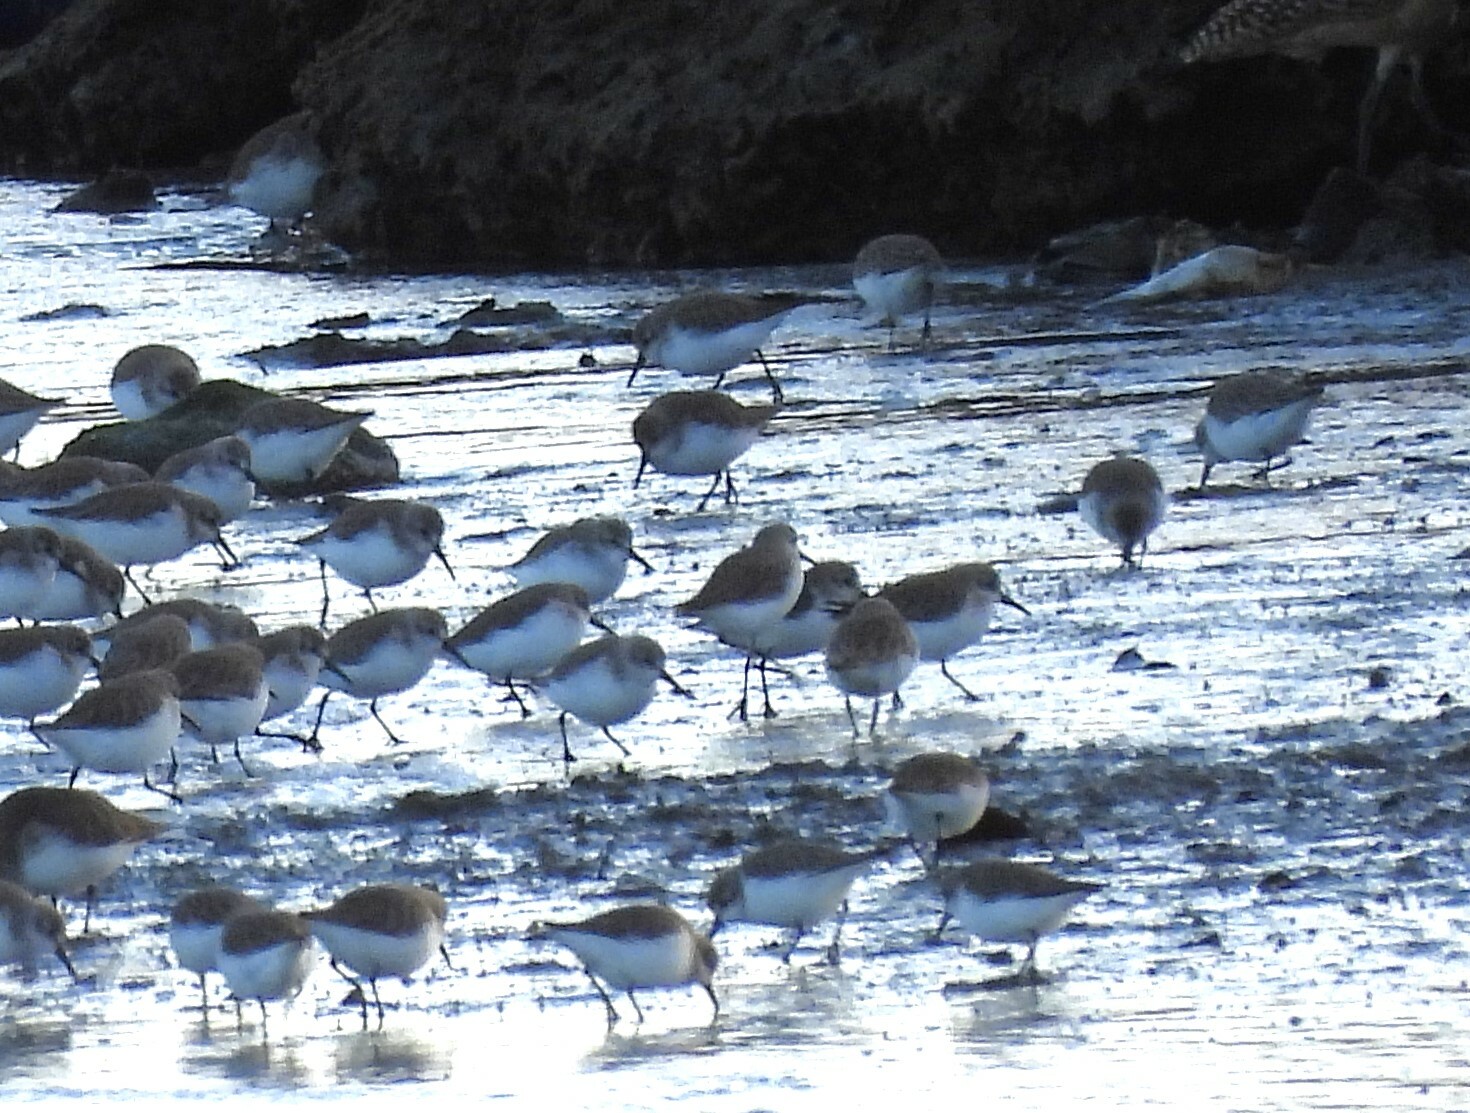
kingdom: Animalia
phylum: Chordata
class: Aves
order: Charadriiformes
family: Scolopacidae
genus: Calidris
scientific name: Calidris mauri
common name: Western sandpiper
